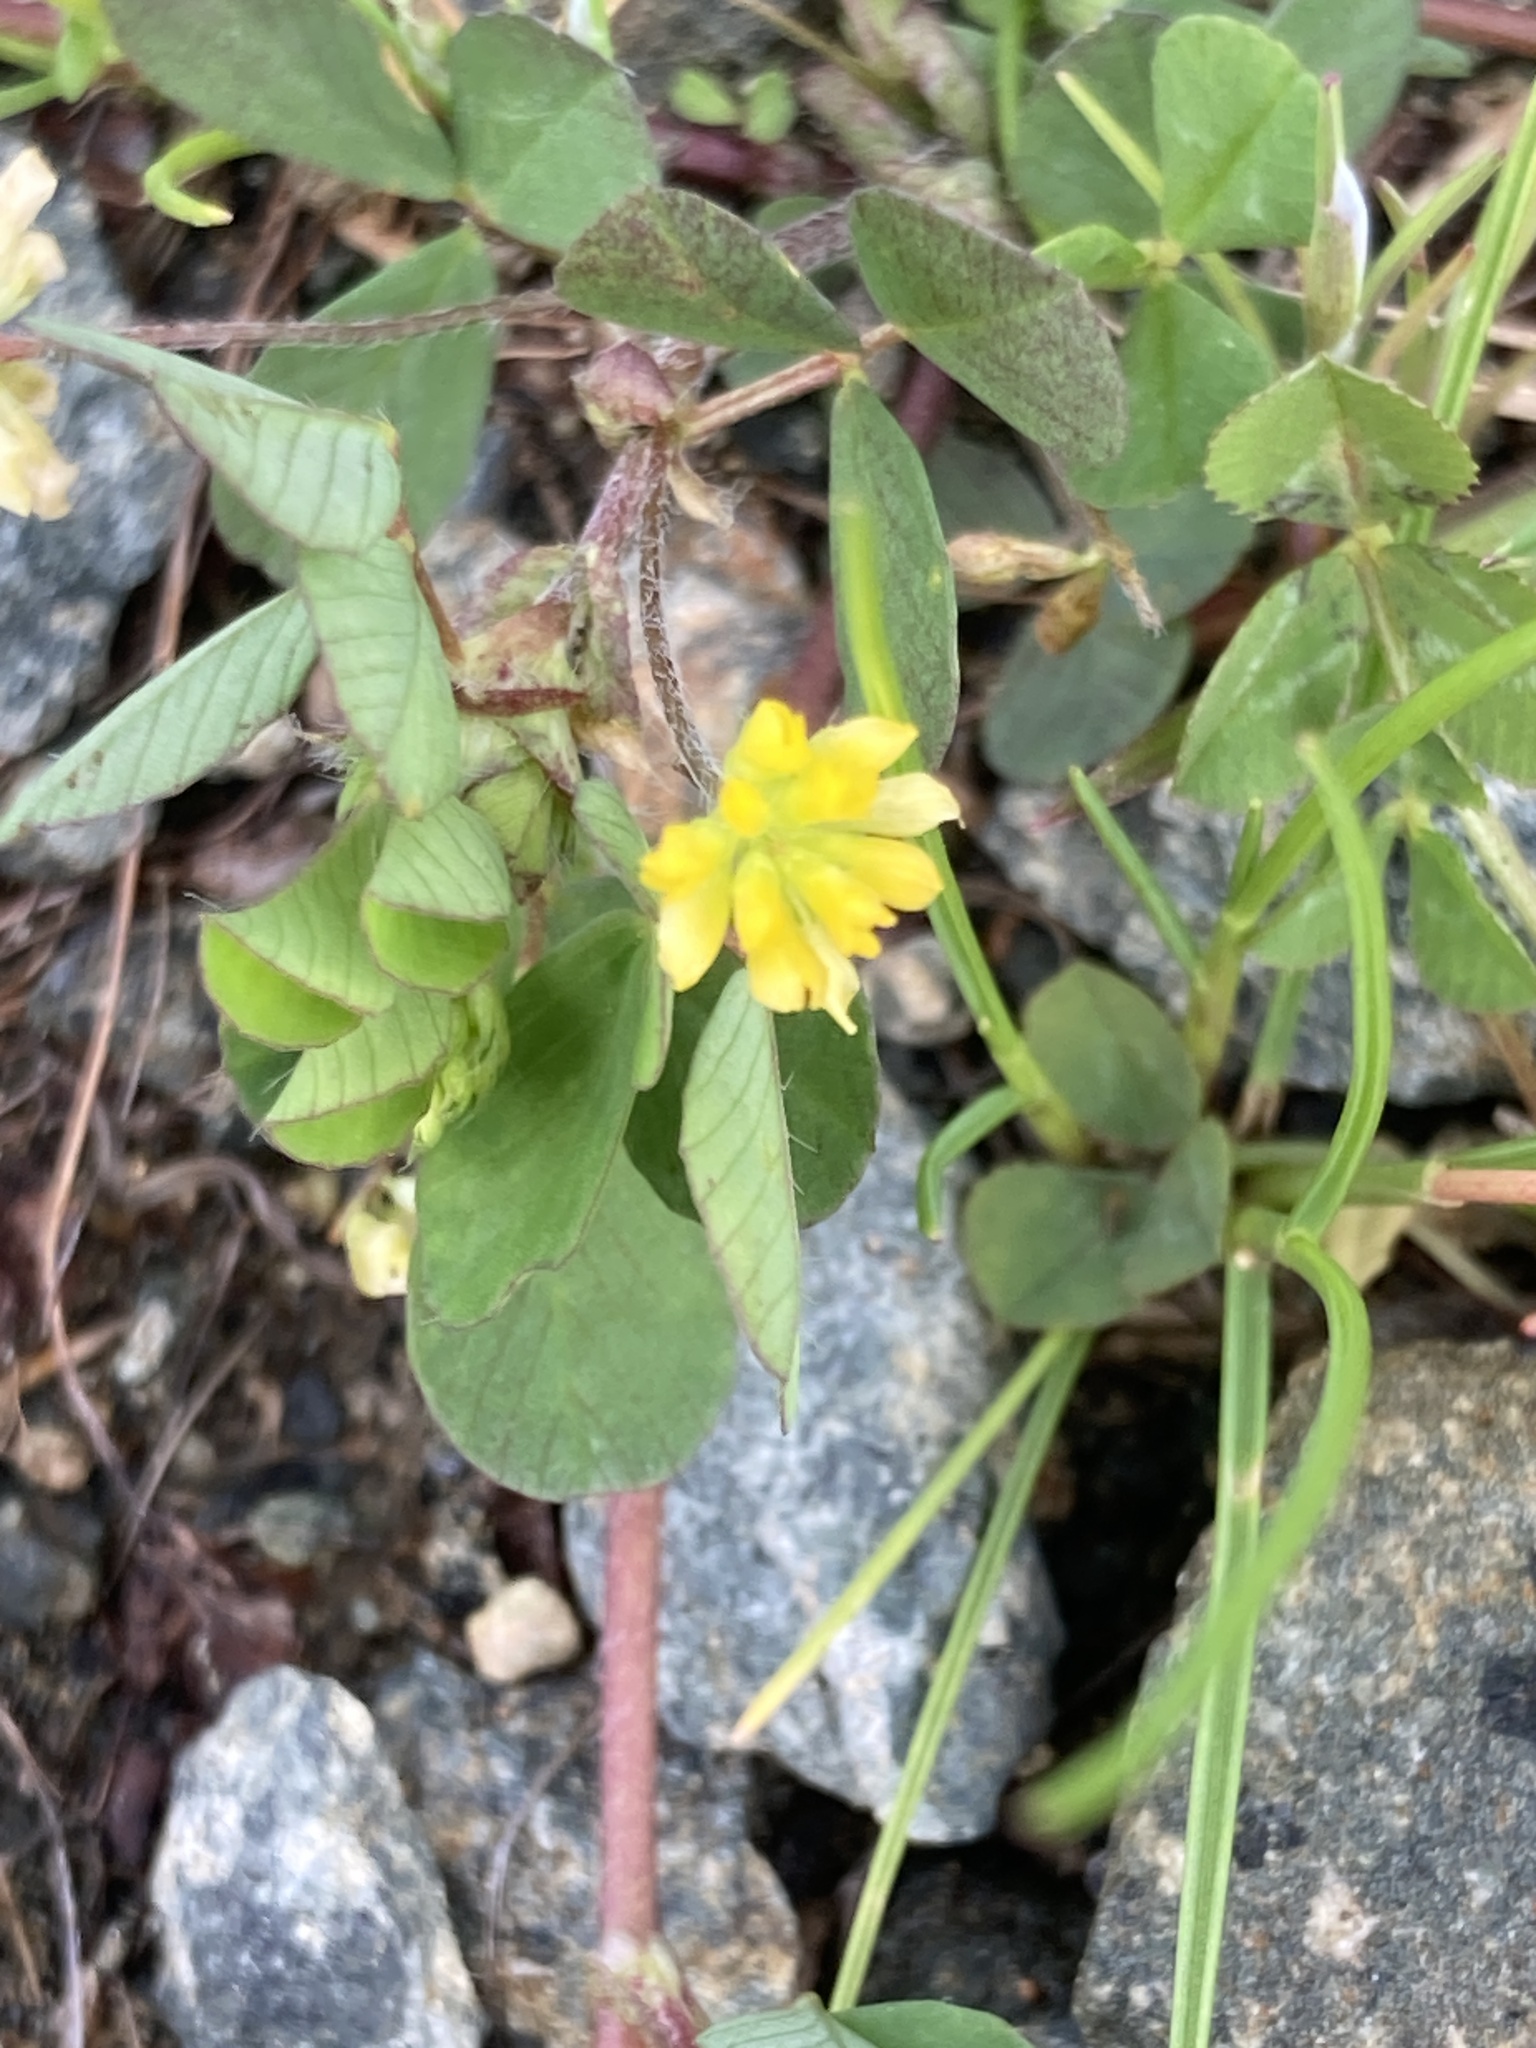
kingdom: Plantae
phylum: Tracheophyta
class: Magnoliopsida
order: Fabales
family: Fabaceae
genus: Trifolium
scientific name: Trifolium dubium
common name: Suckling clover
